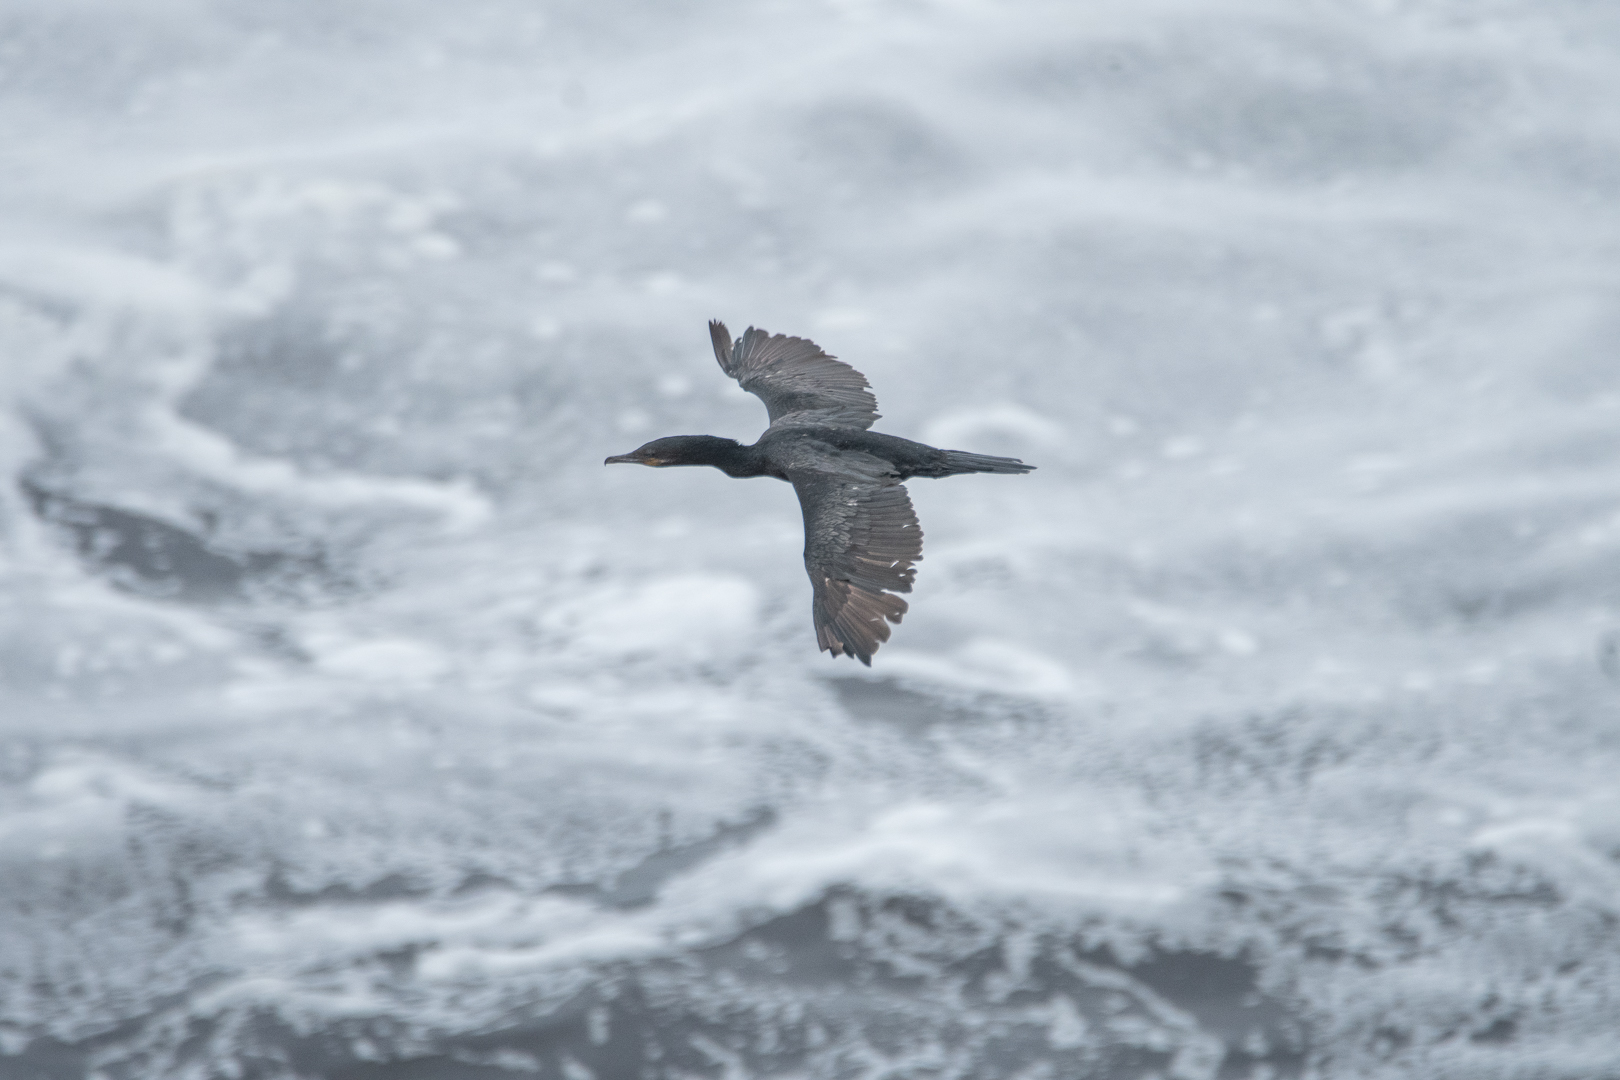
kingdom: Animalia
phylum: Chordata
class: Aves
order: Suliformes
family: Phalacrocoracidae
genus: Phalacrocorax
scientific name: Phalacrocorax brasilianus
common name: Neotropic cormorant
